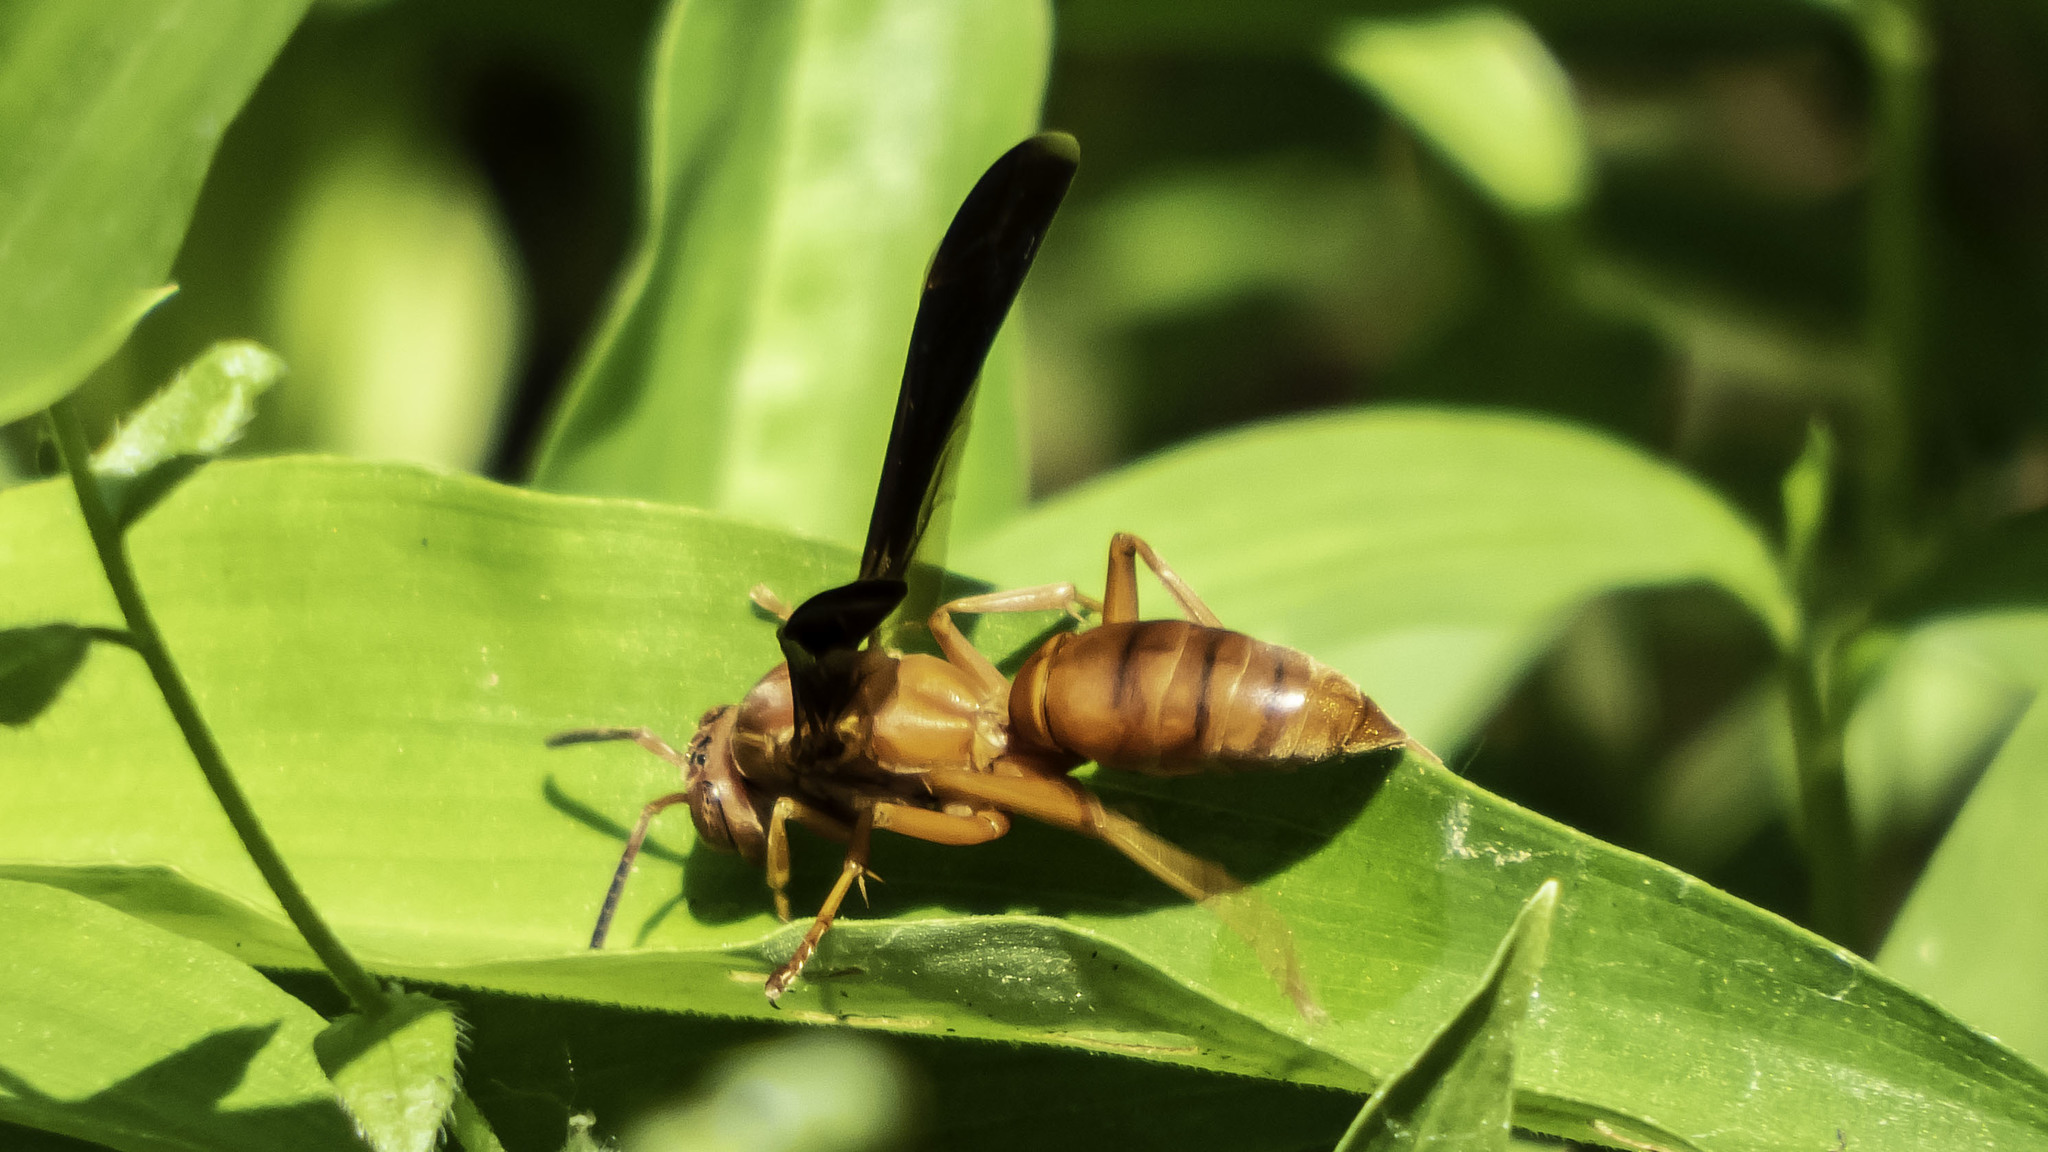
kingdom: Animalia
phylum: Arthropoda
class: Insecta
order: Hymenoptera
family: Eumenidae
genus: Polistes
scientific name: Polistes
